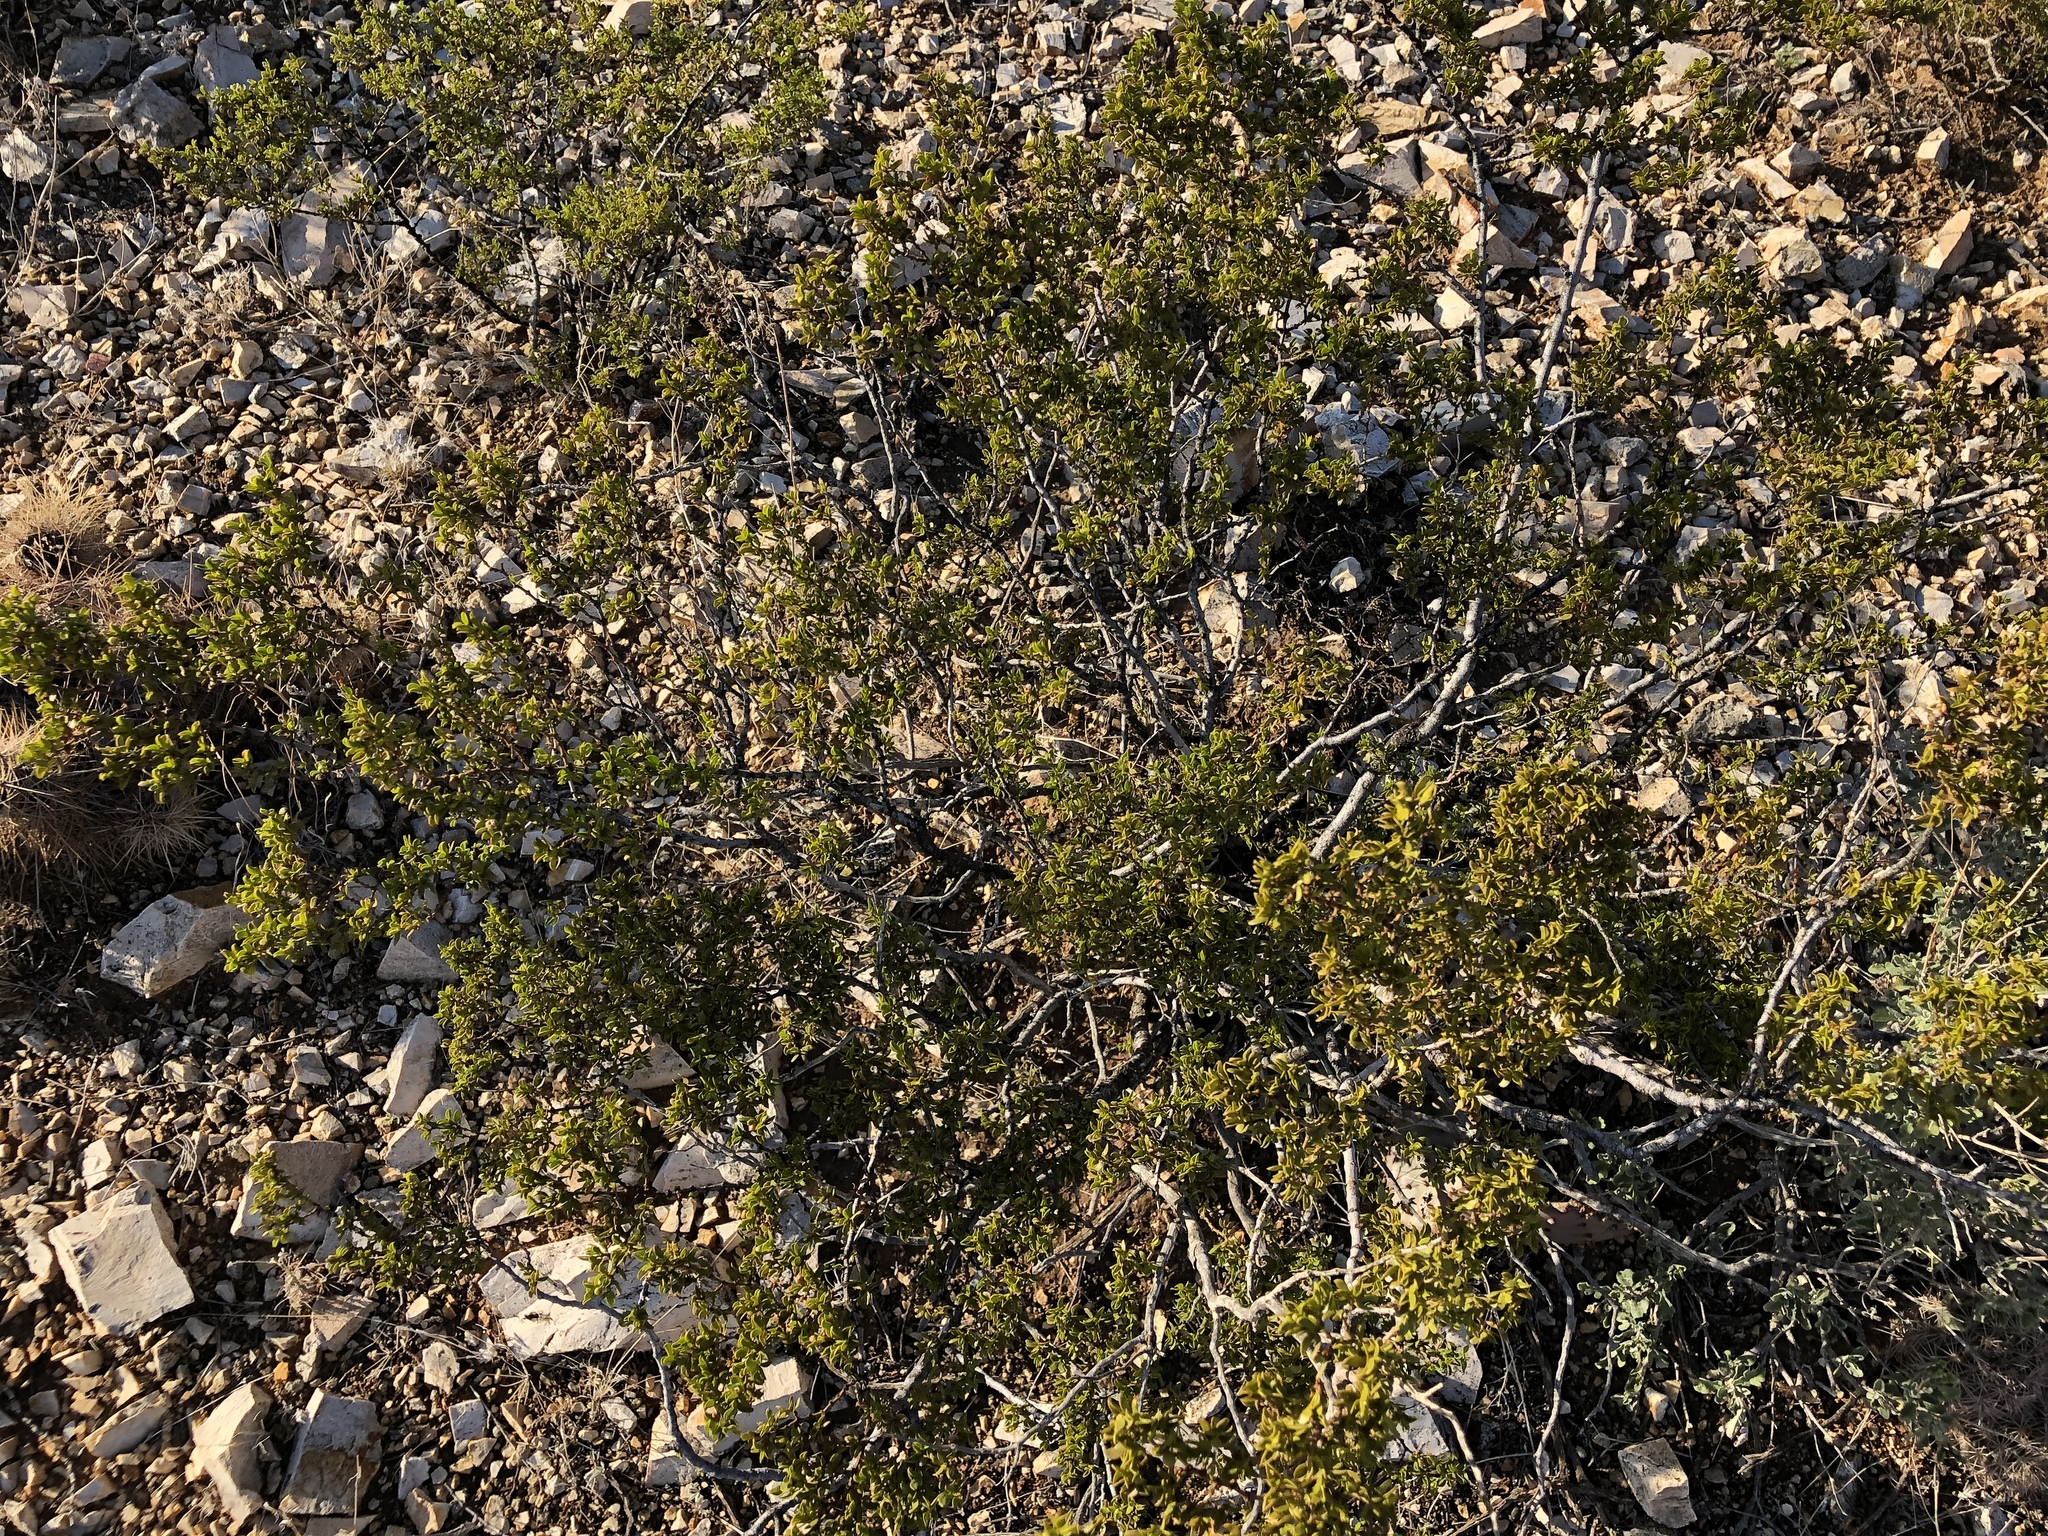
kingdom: Plantae
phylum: Tracheophyta
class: Magnoliopsida
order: Zygophyllales
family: Zygophyllaceae
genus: Larrea
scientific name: Larrea tridentata
